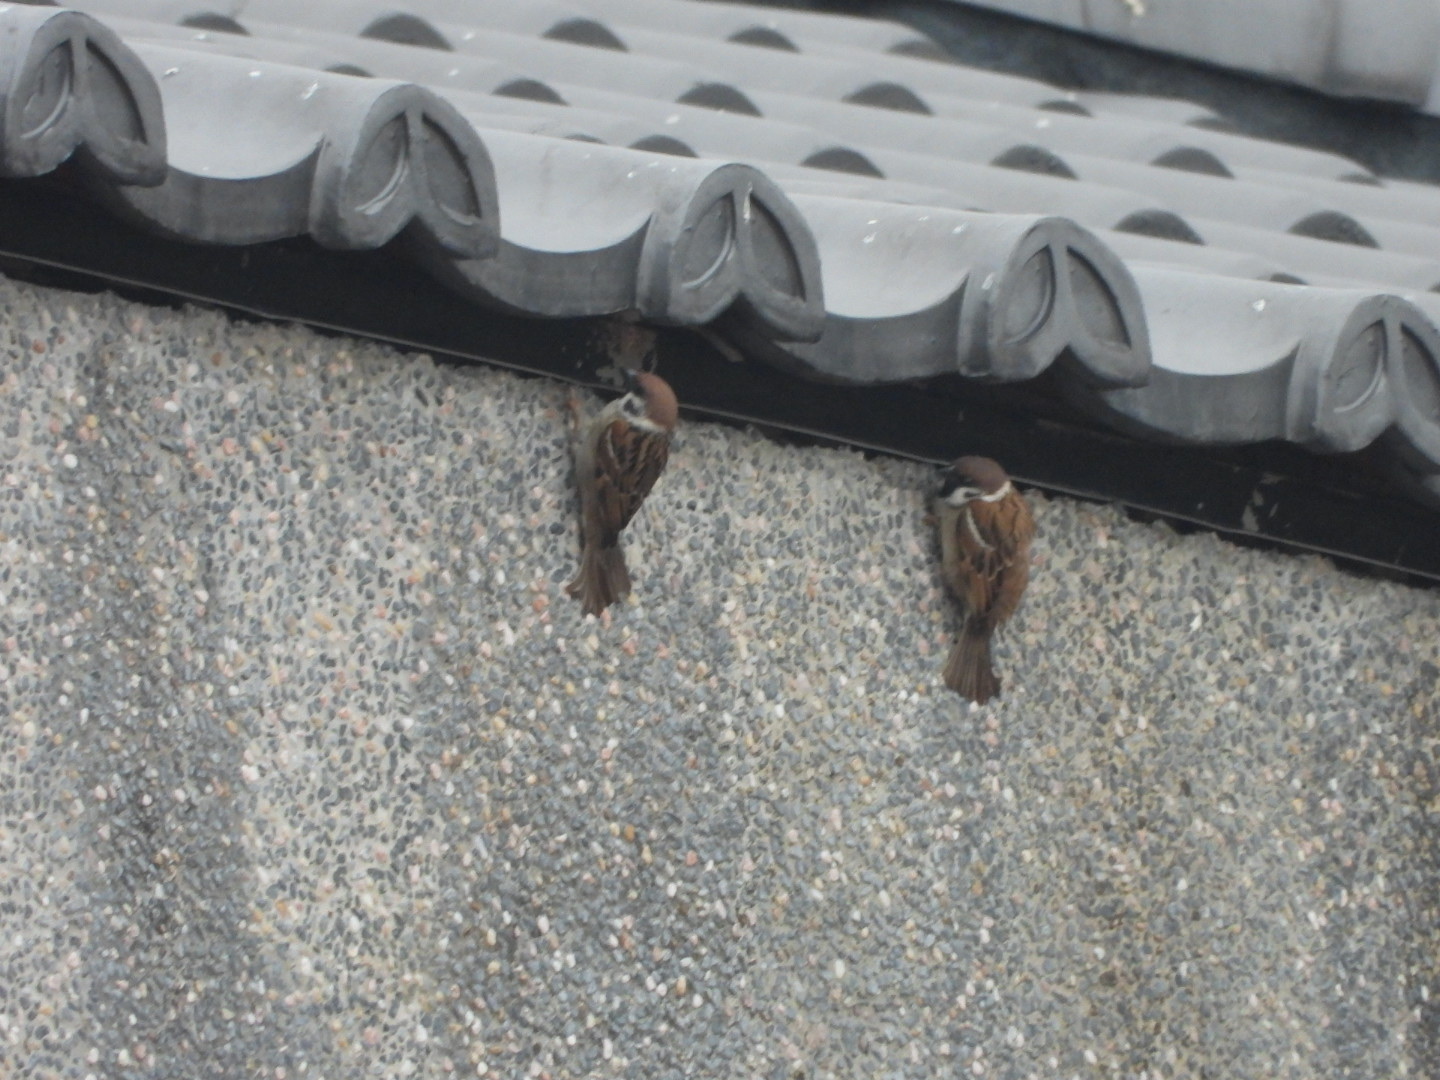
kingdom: Animalia
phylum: Chordata
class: Aves
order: Passeriformes
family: Passeridae
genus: Passer
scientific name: Passer montanus
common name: Eurasian tree sparrow
